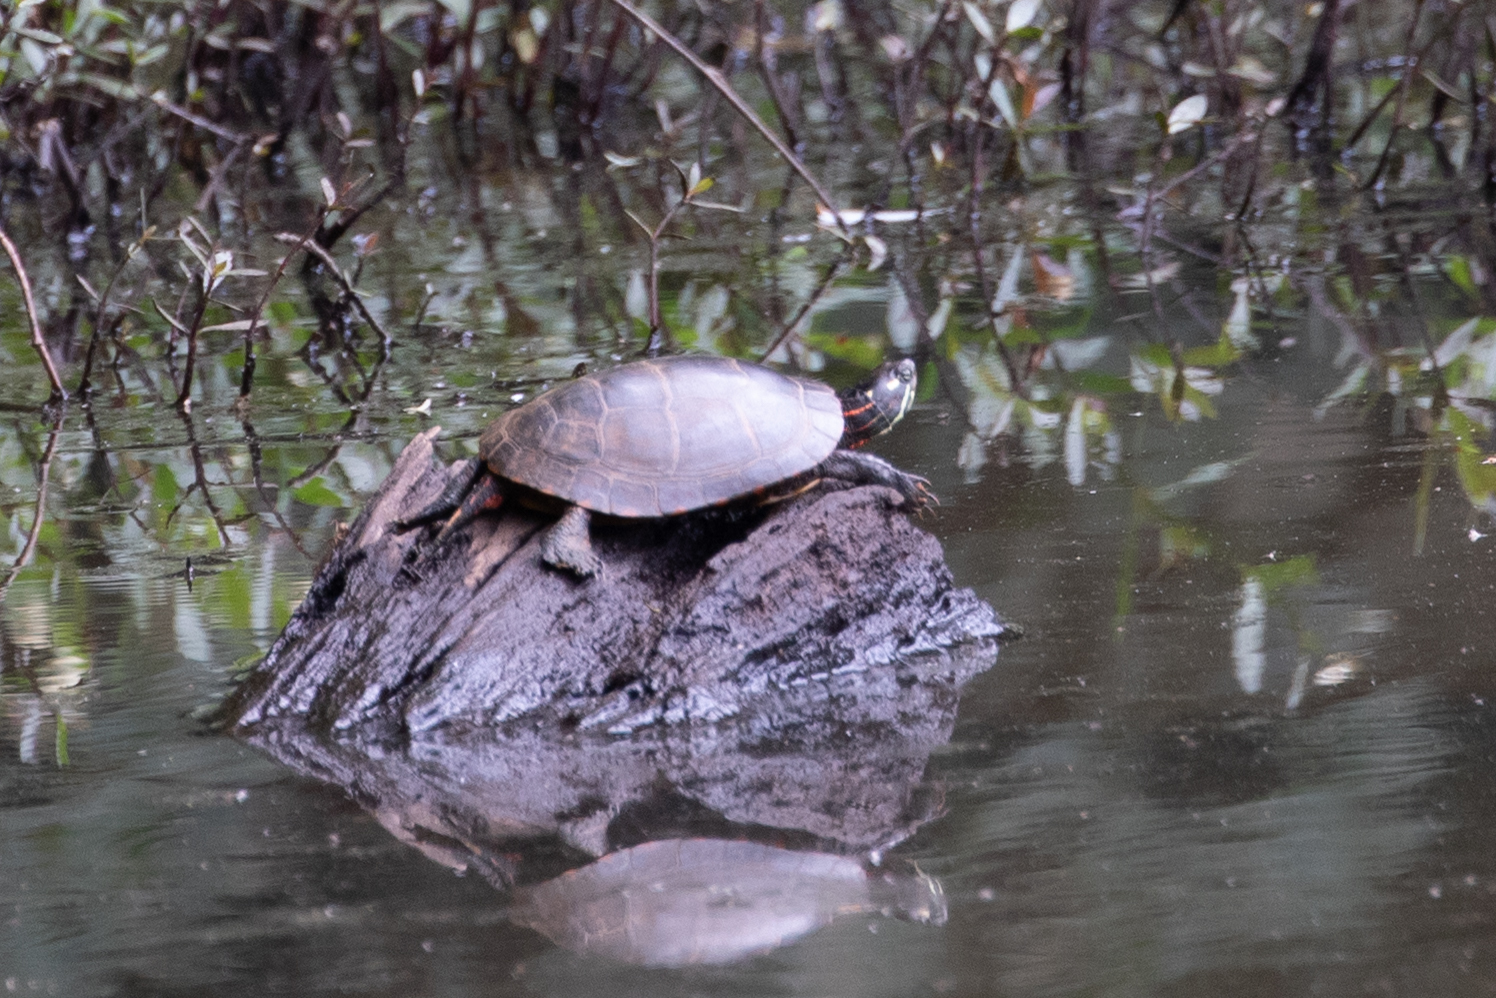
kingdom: Animalia
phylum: Chordata
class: Testudines
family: Emydidae
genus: Chrysemys
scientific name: Chrysemys picta
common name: Painted turtle
